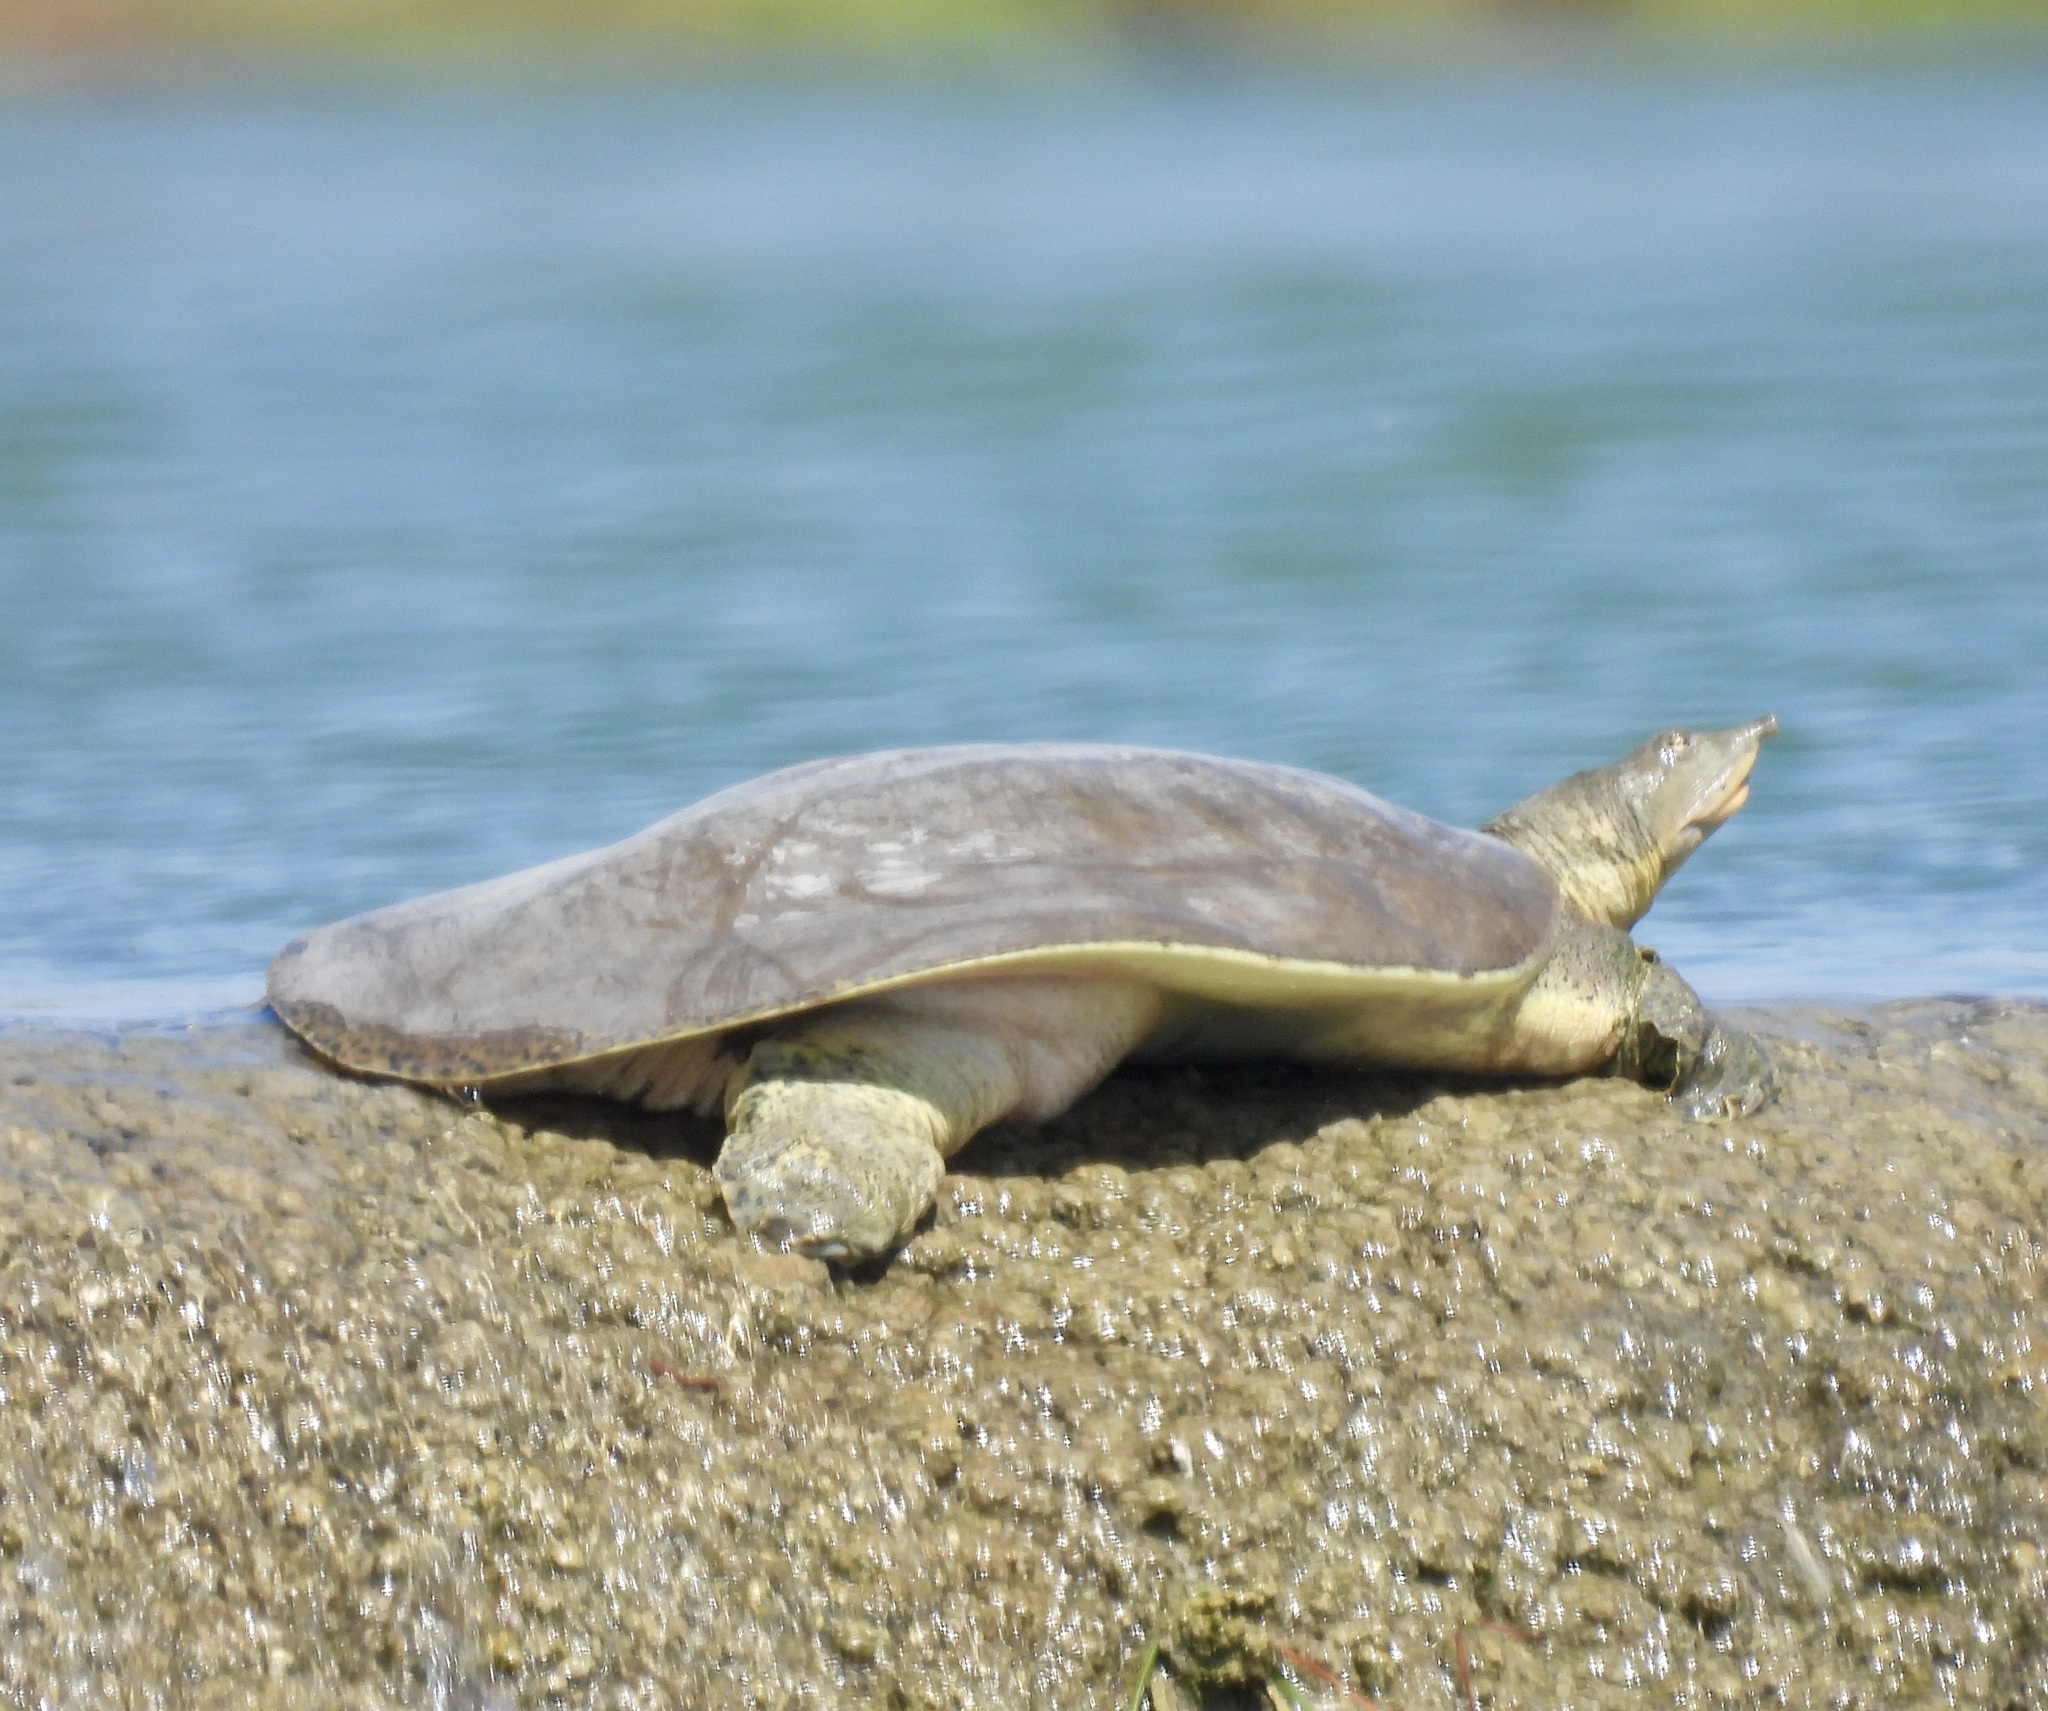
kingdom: Animalia
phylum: Chordata
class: Testudines
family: Trionychidae
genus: Apalone
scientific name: Apalone spinifera
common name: Spiny softshell turtle
